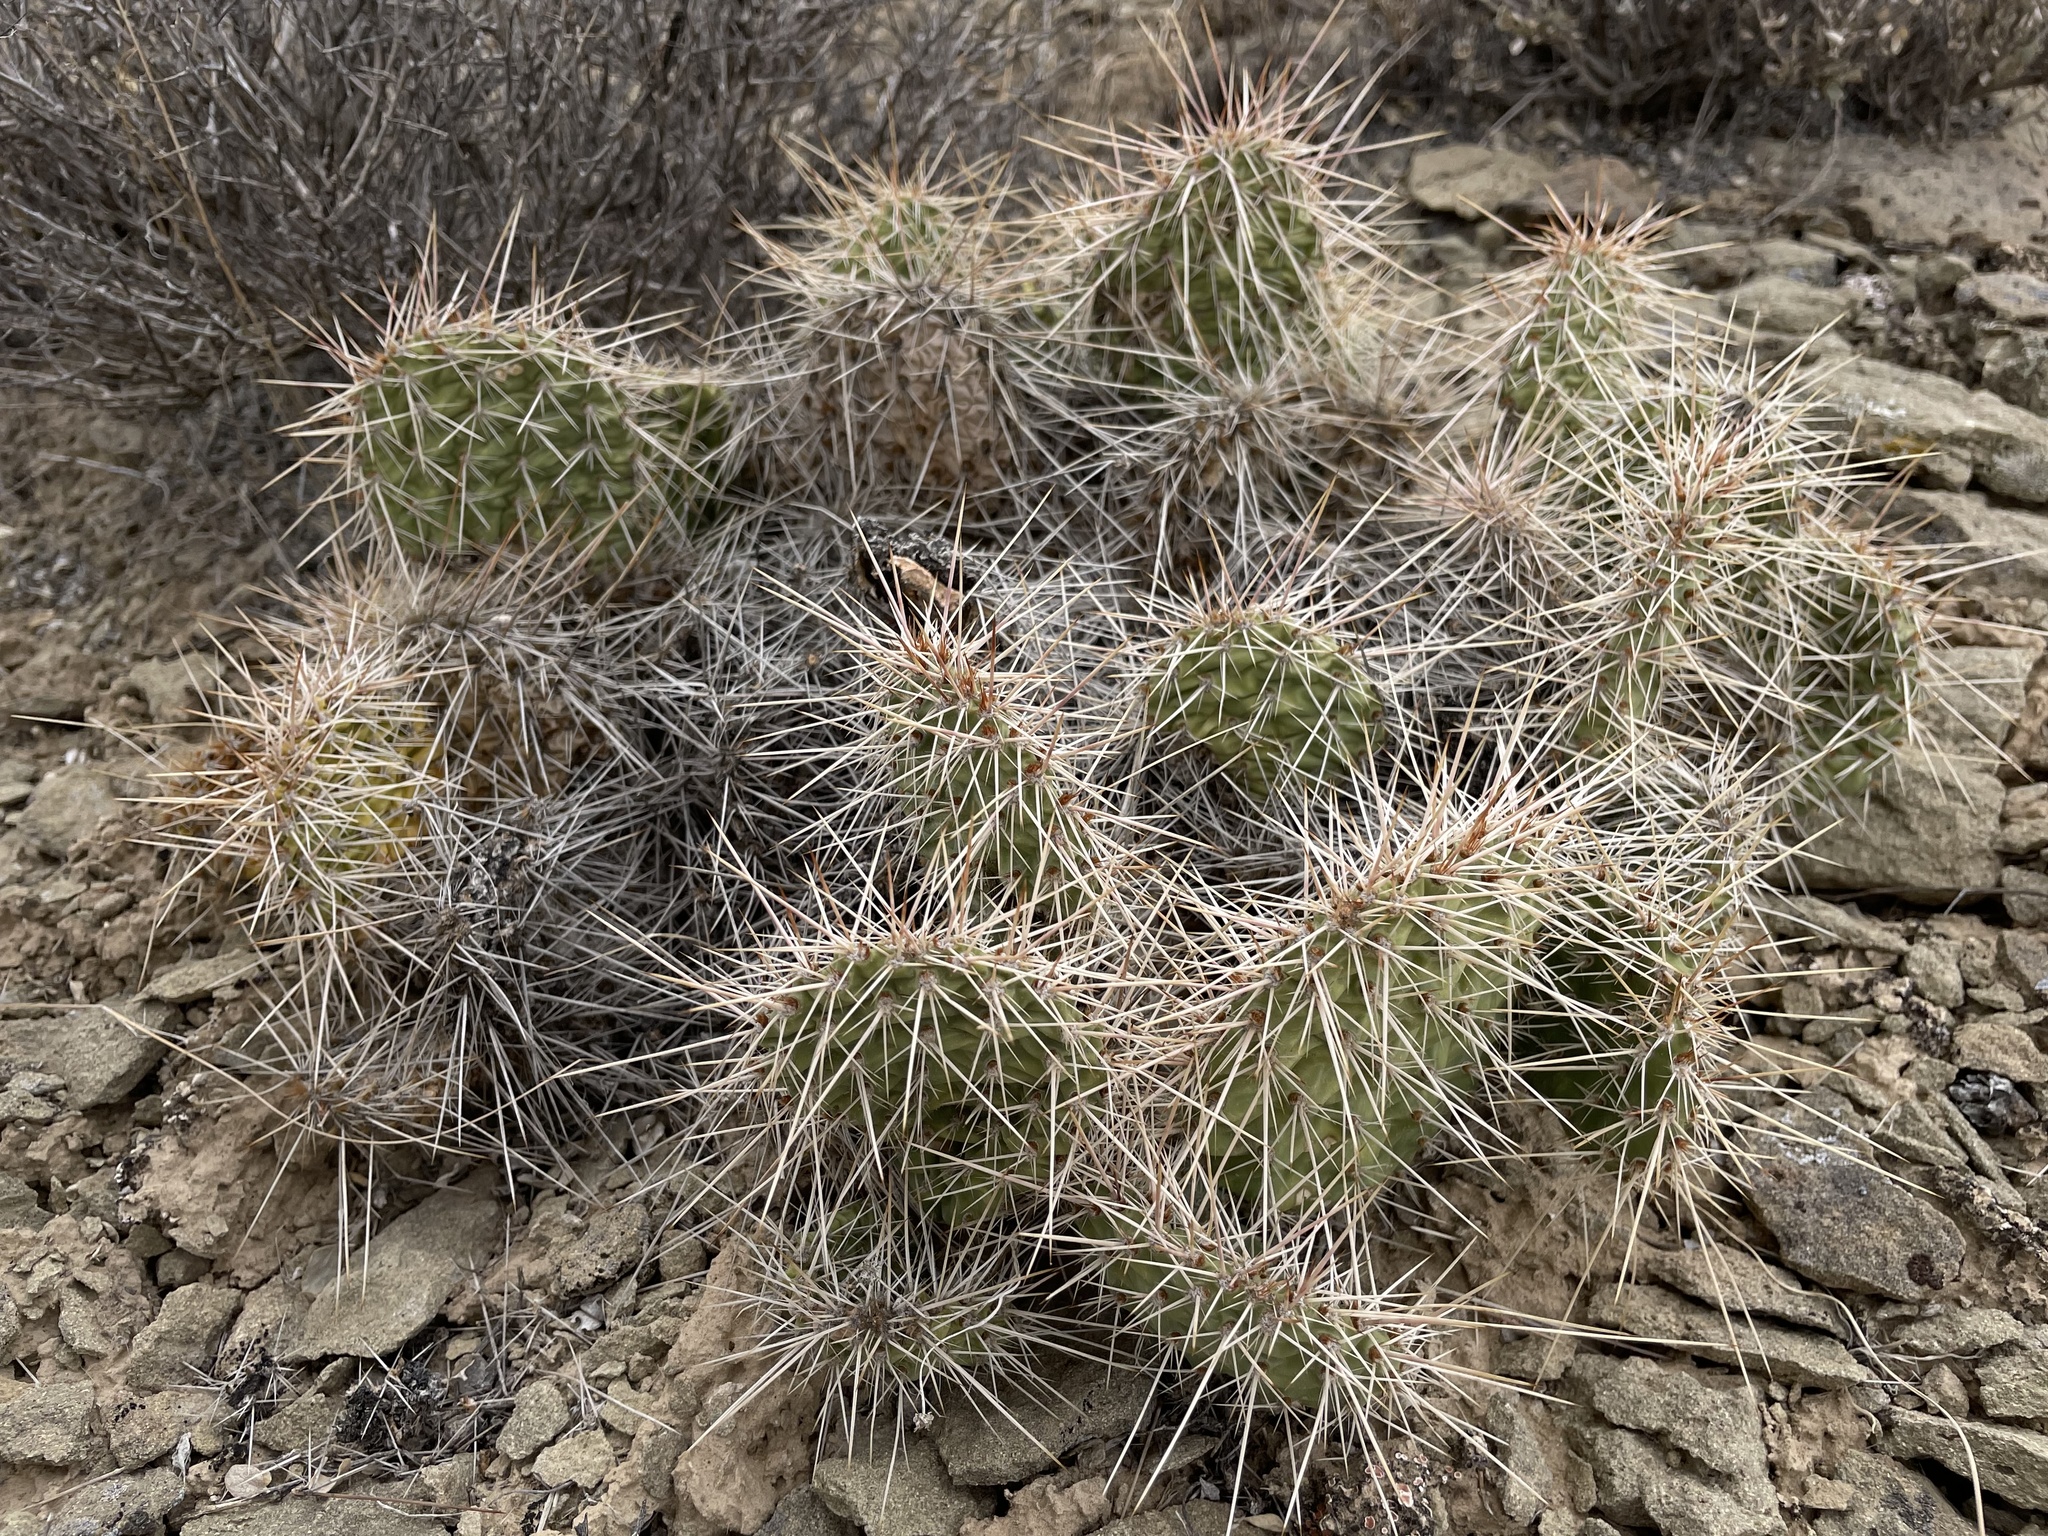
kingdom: Plantae
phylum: Tracheophyta
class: Magnoliopsida
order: Caryophyllales
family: Cactaceae
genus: Opuntia
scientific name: Opuntia polyacantha
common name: Plains prickly-pear
